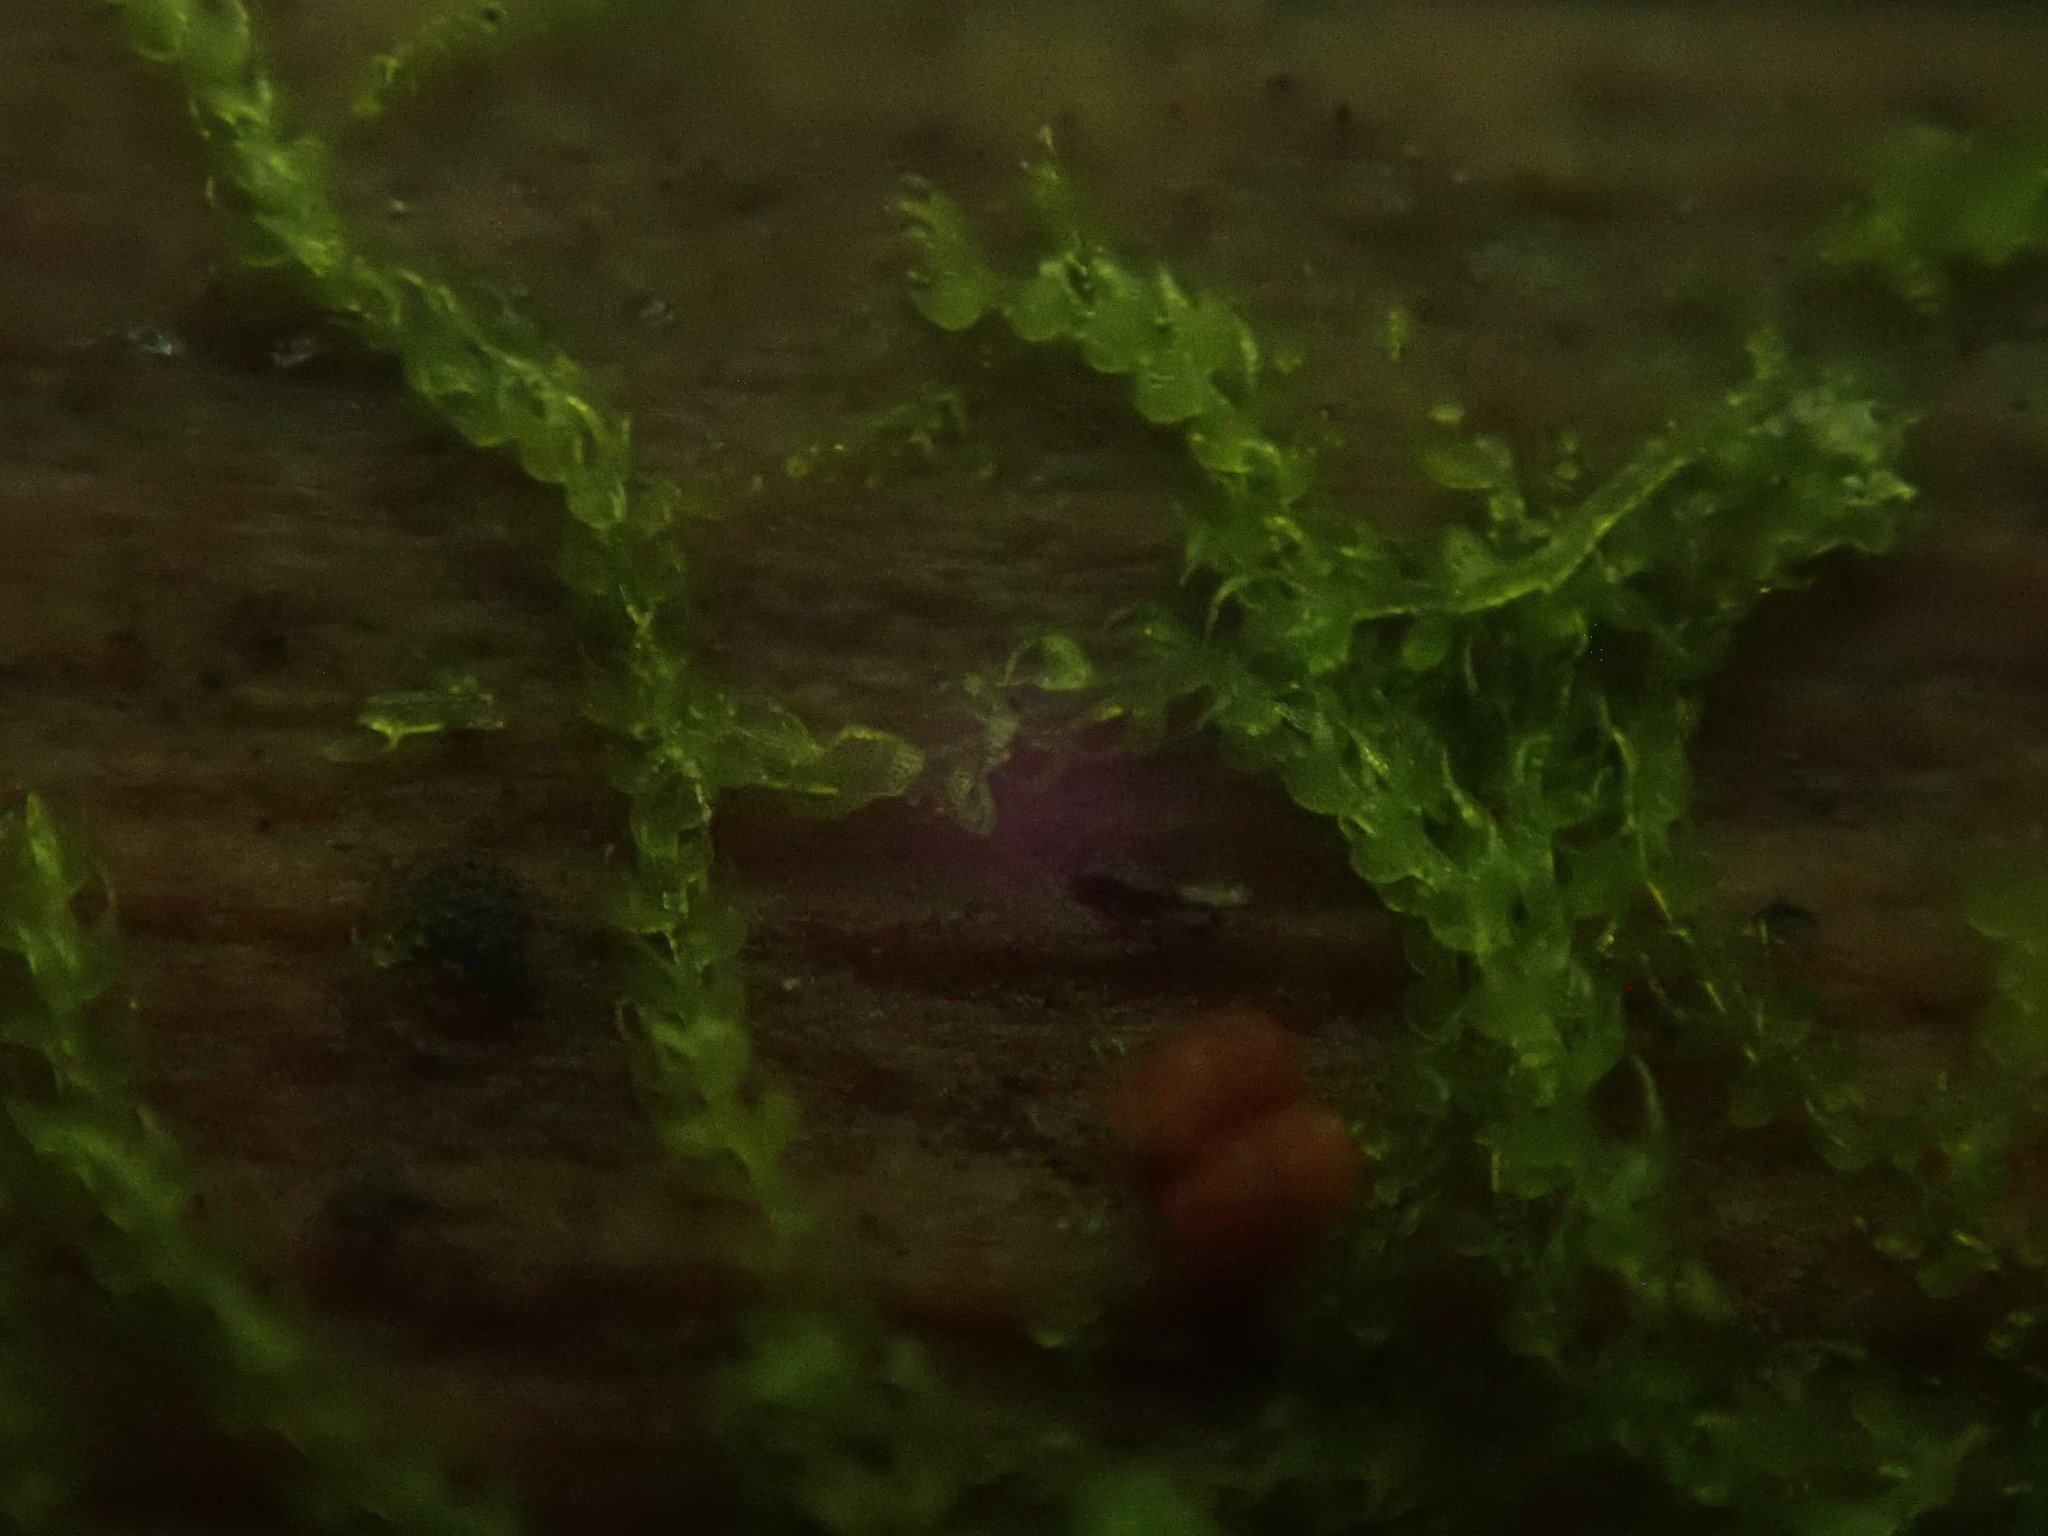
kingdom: Plantae
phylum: Marchantiophyta
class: Jungermanniopsida
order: Jungermanniales
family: Cephaloziaceae
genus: Nowellia
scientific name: Nowellia curvifolia
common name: Wood rustwort
